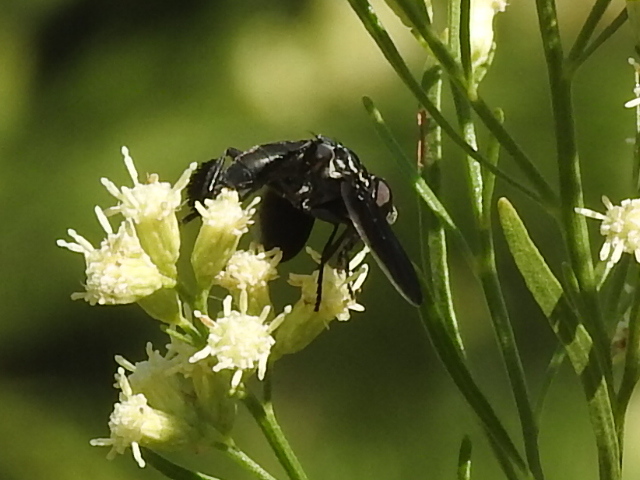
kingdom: Animalia
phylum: Arthropoda
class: Insecta
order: Diptera
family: Tachinidae
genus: Trichopoda
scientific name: Trichopoda lanipes
